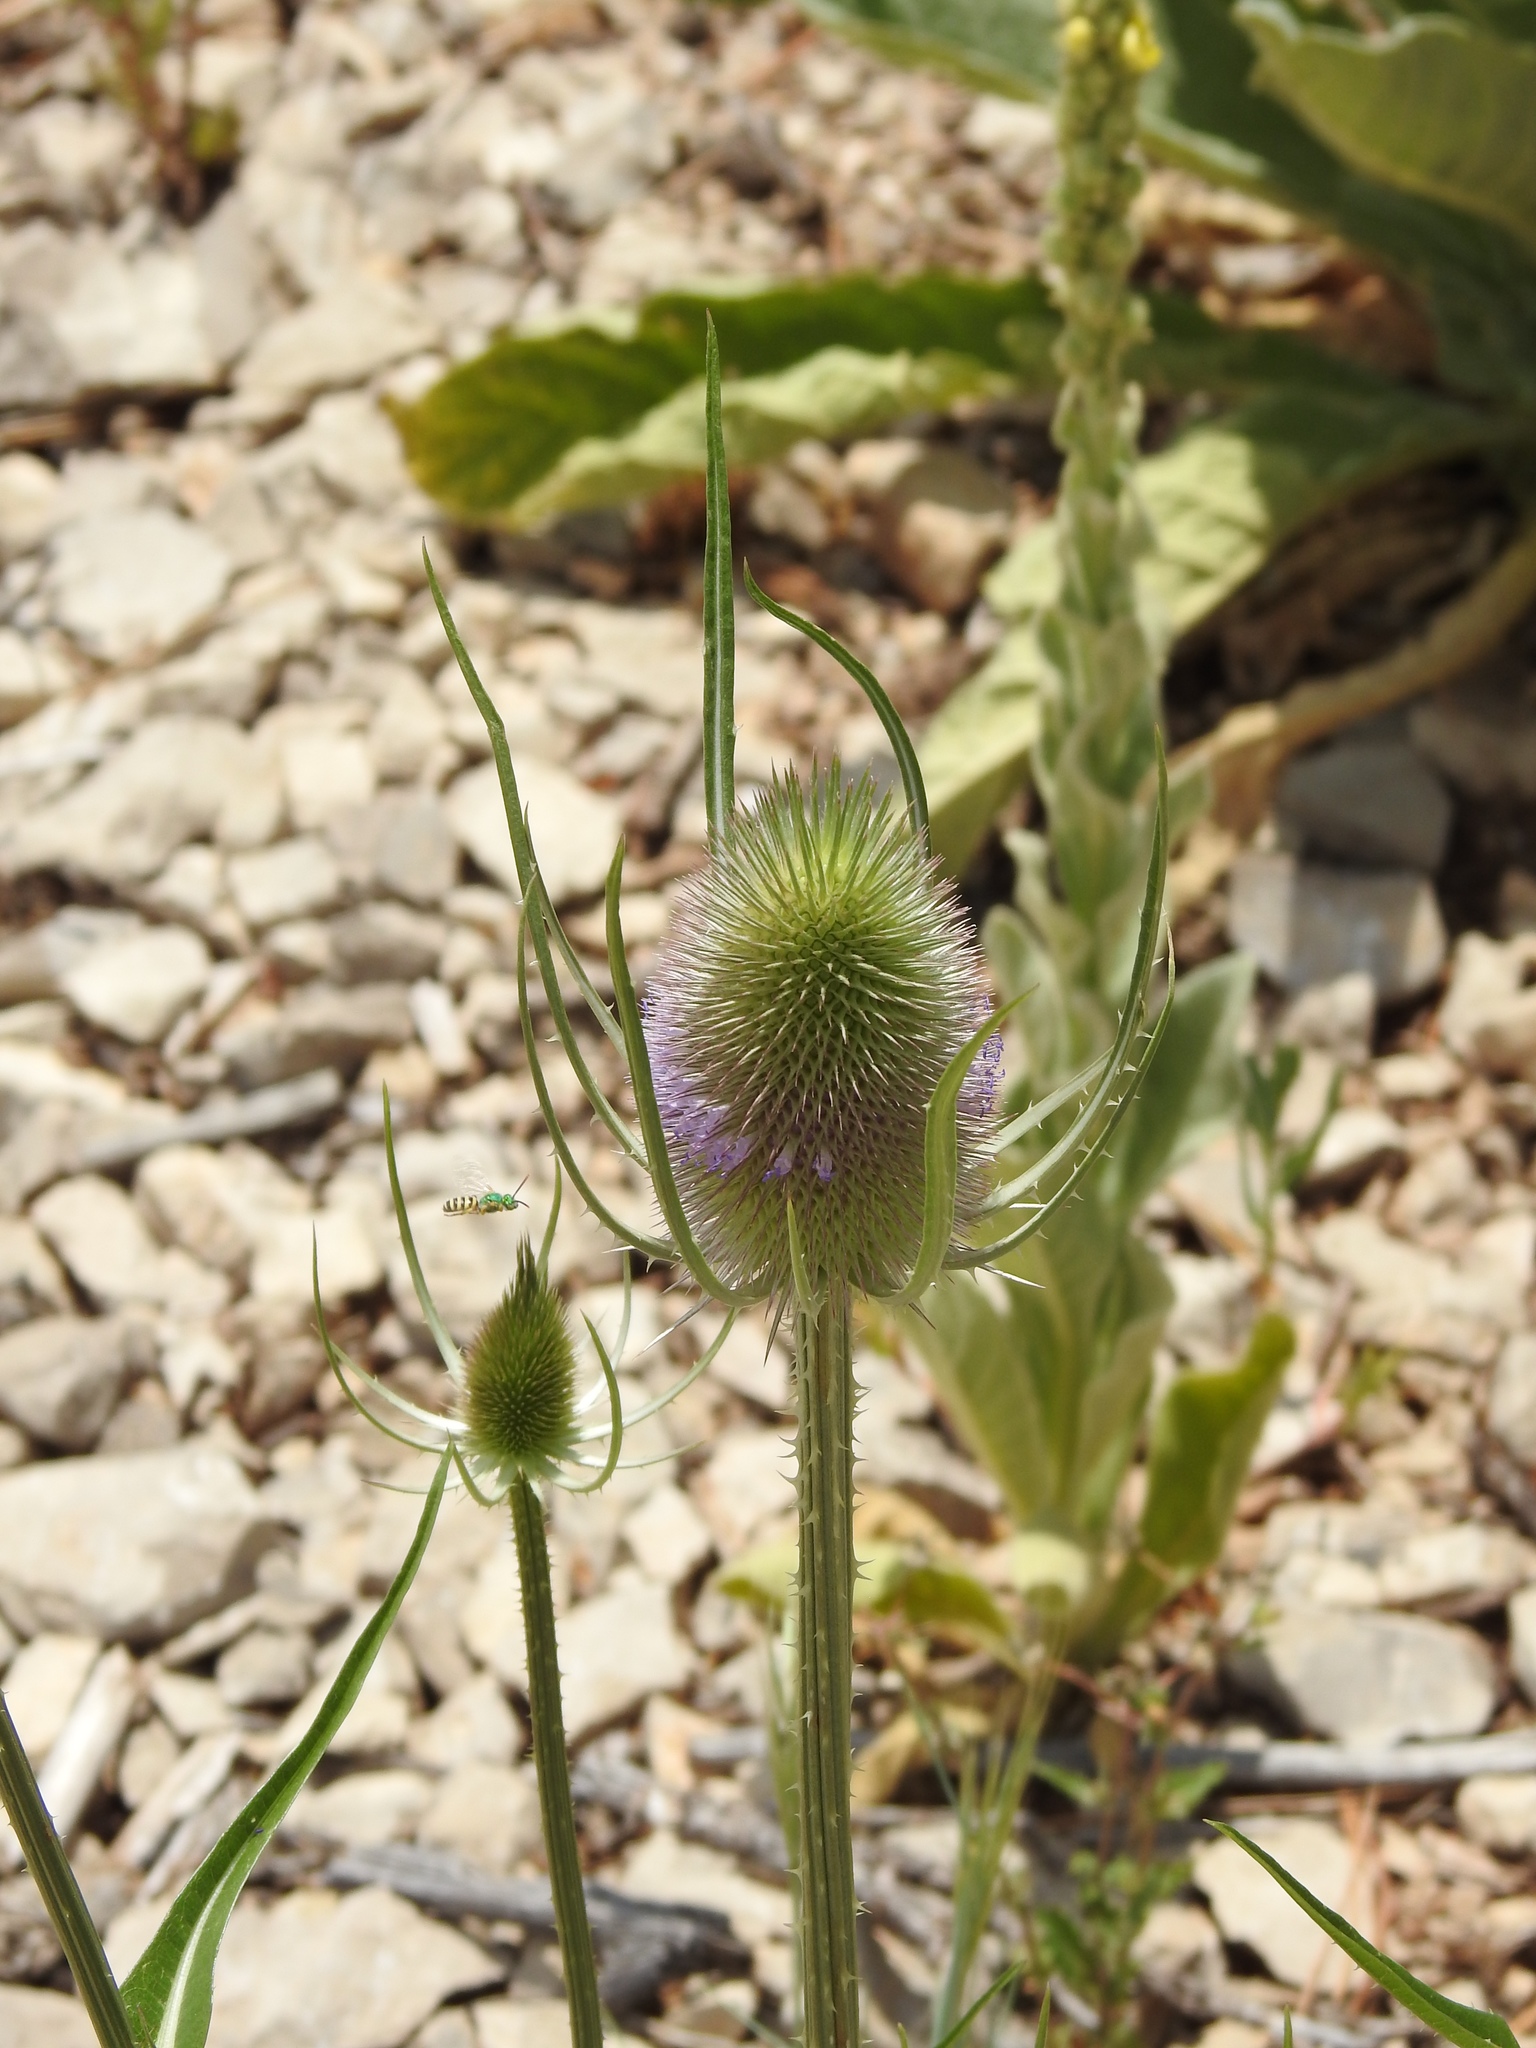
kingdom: Plantae
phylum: Tracheophyta
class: Magnoliopsida
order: Dipsacales
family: Caprifoliaceae
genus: Dipsacus
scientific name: Dipsacus fullonum
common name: Teasel
